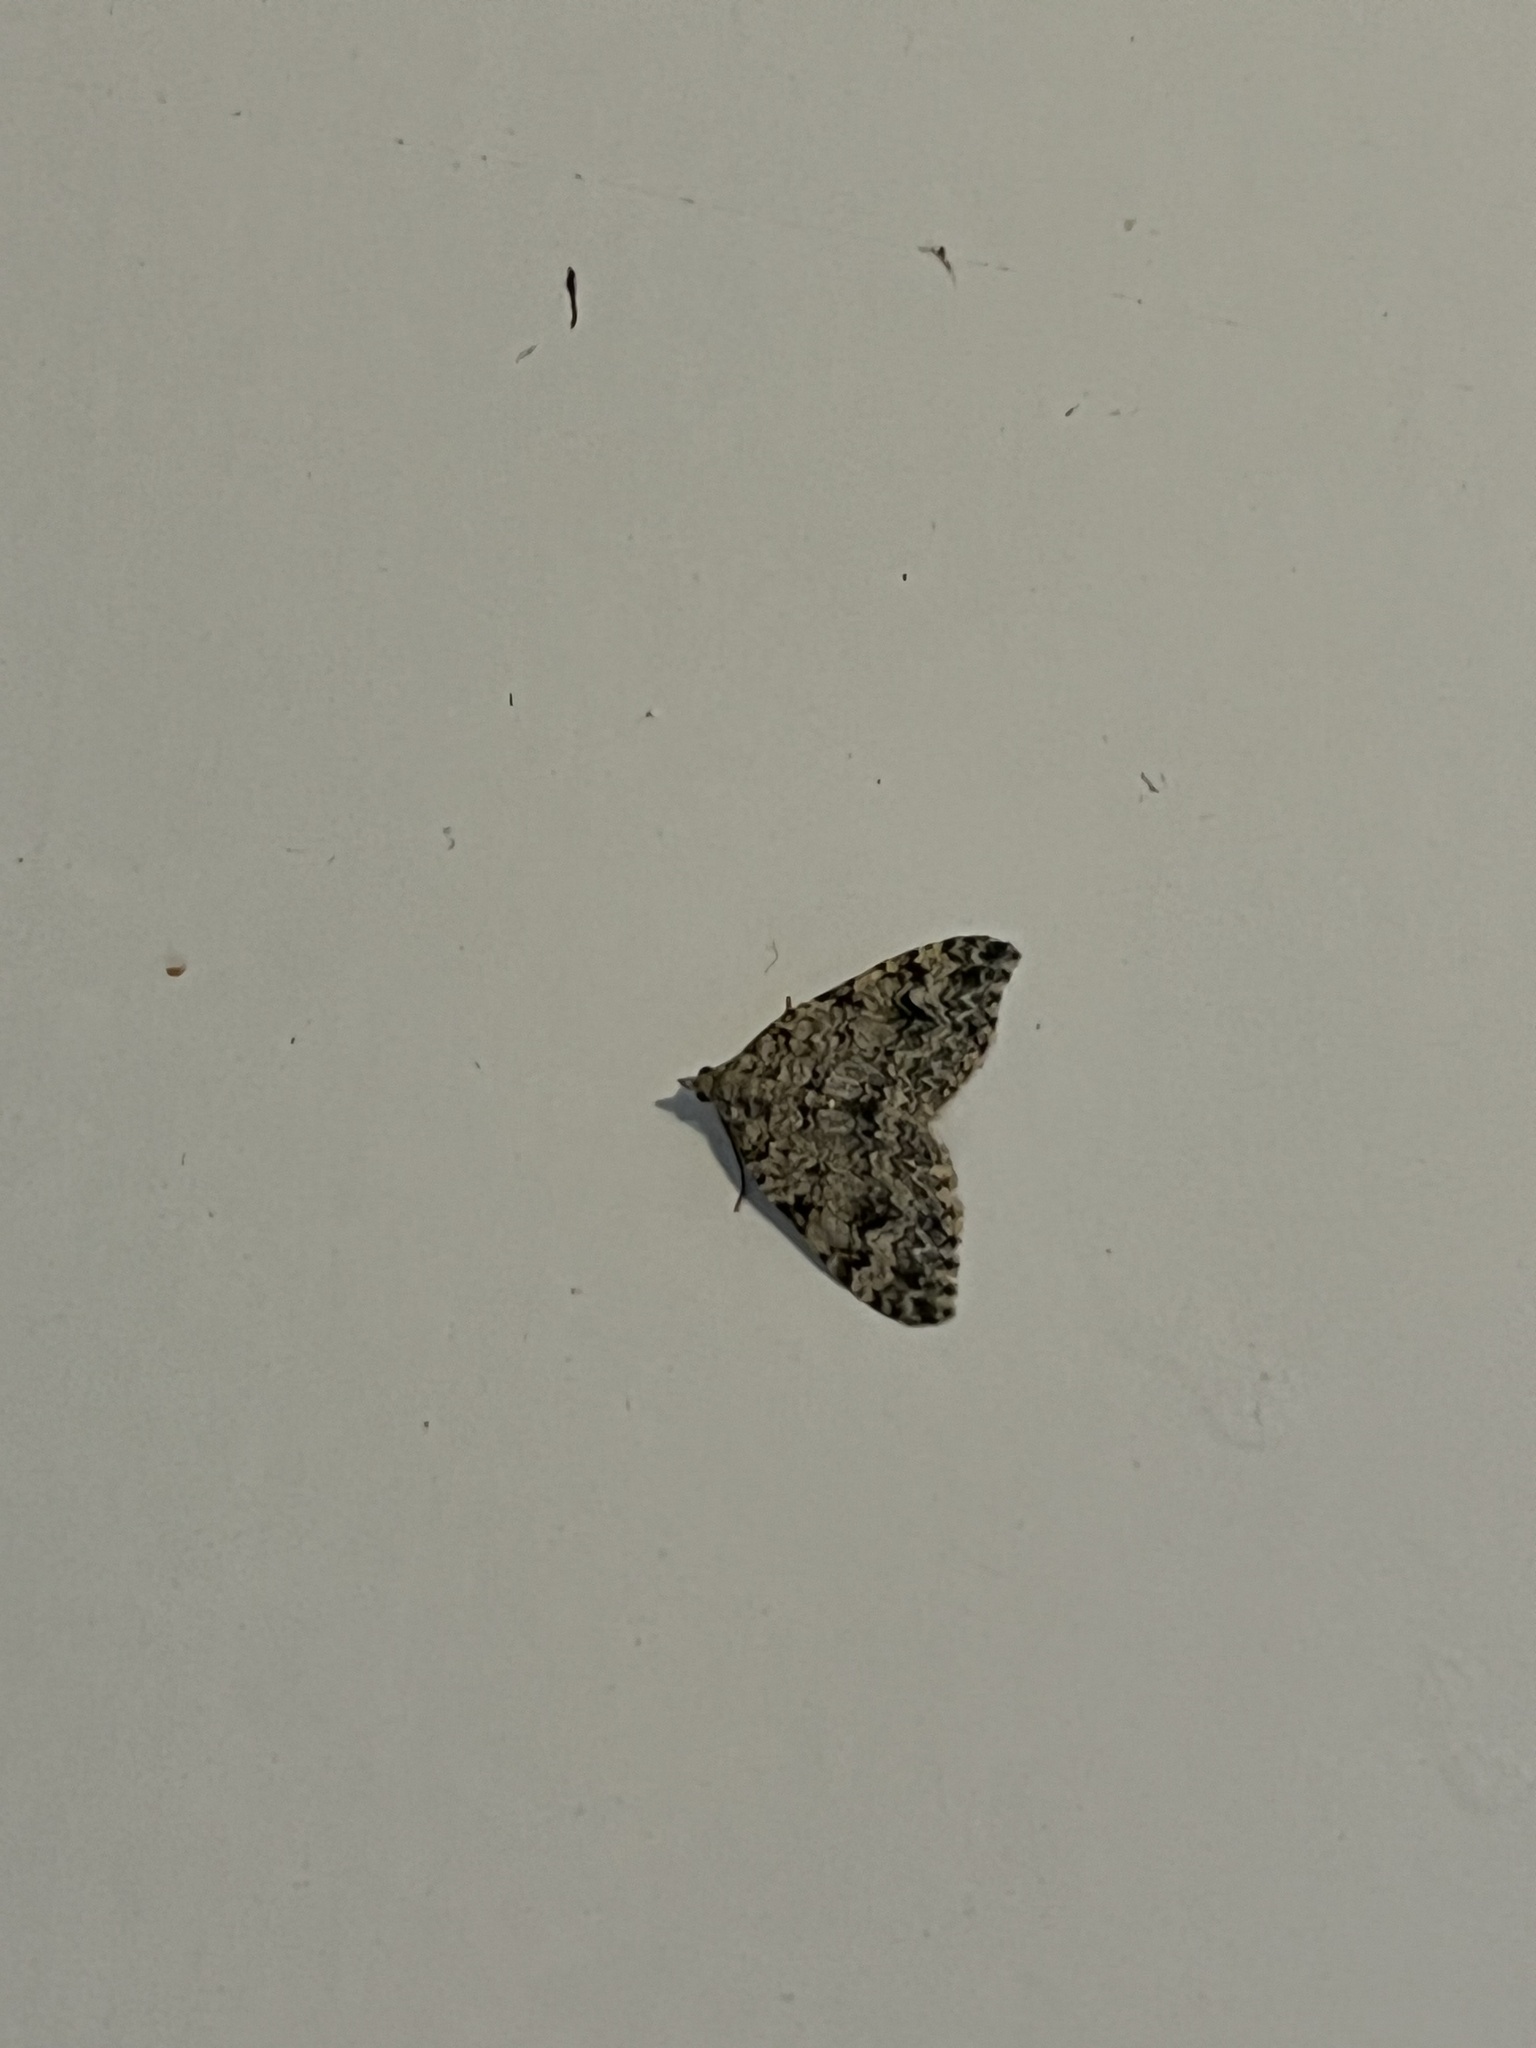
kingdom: Animalia
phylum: Arthropoda
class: Insecta
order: Lepidoptera
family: Geometridae
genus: Helastia
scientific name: Helastia cinerearia
